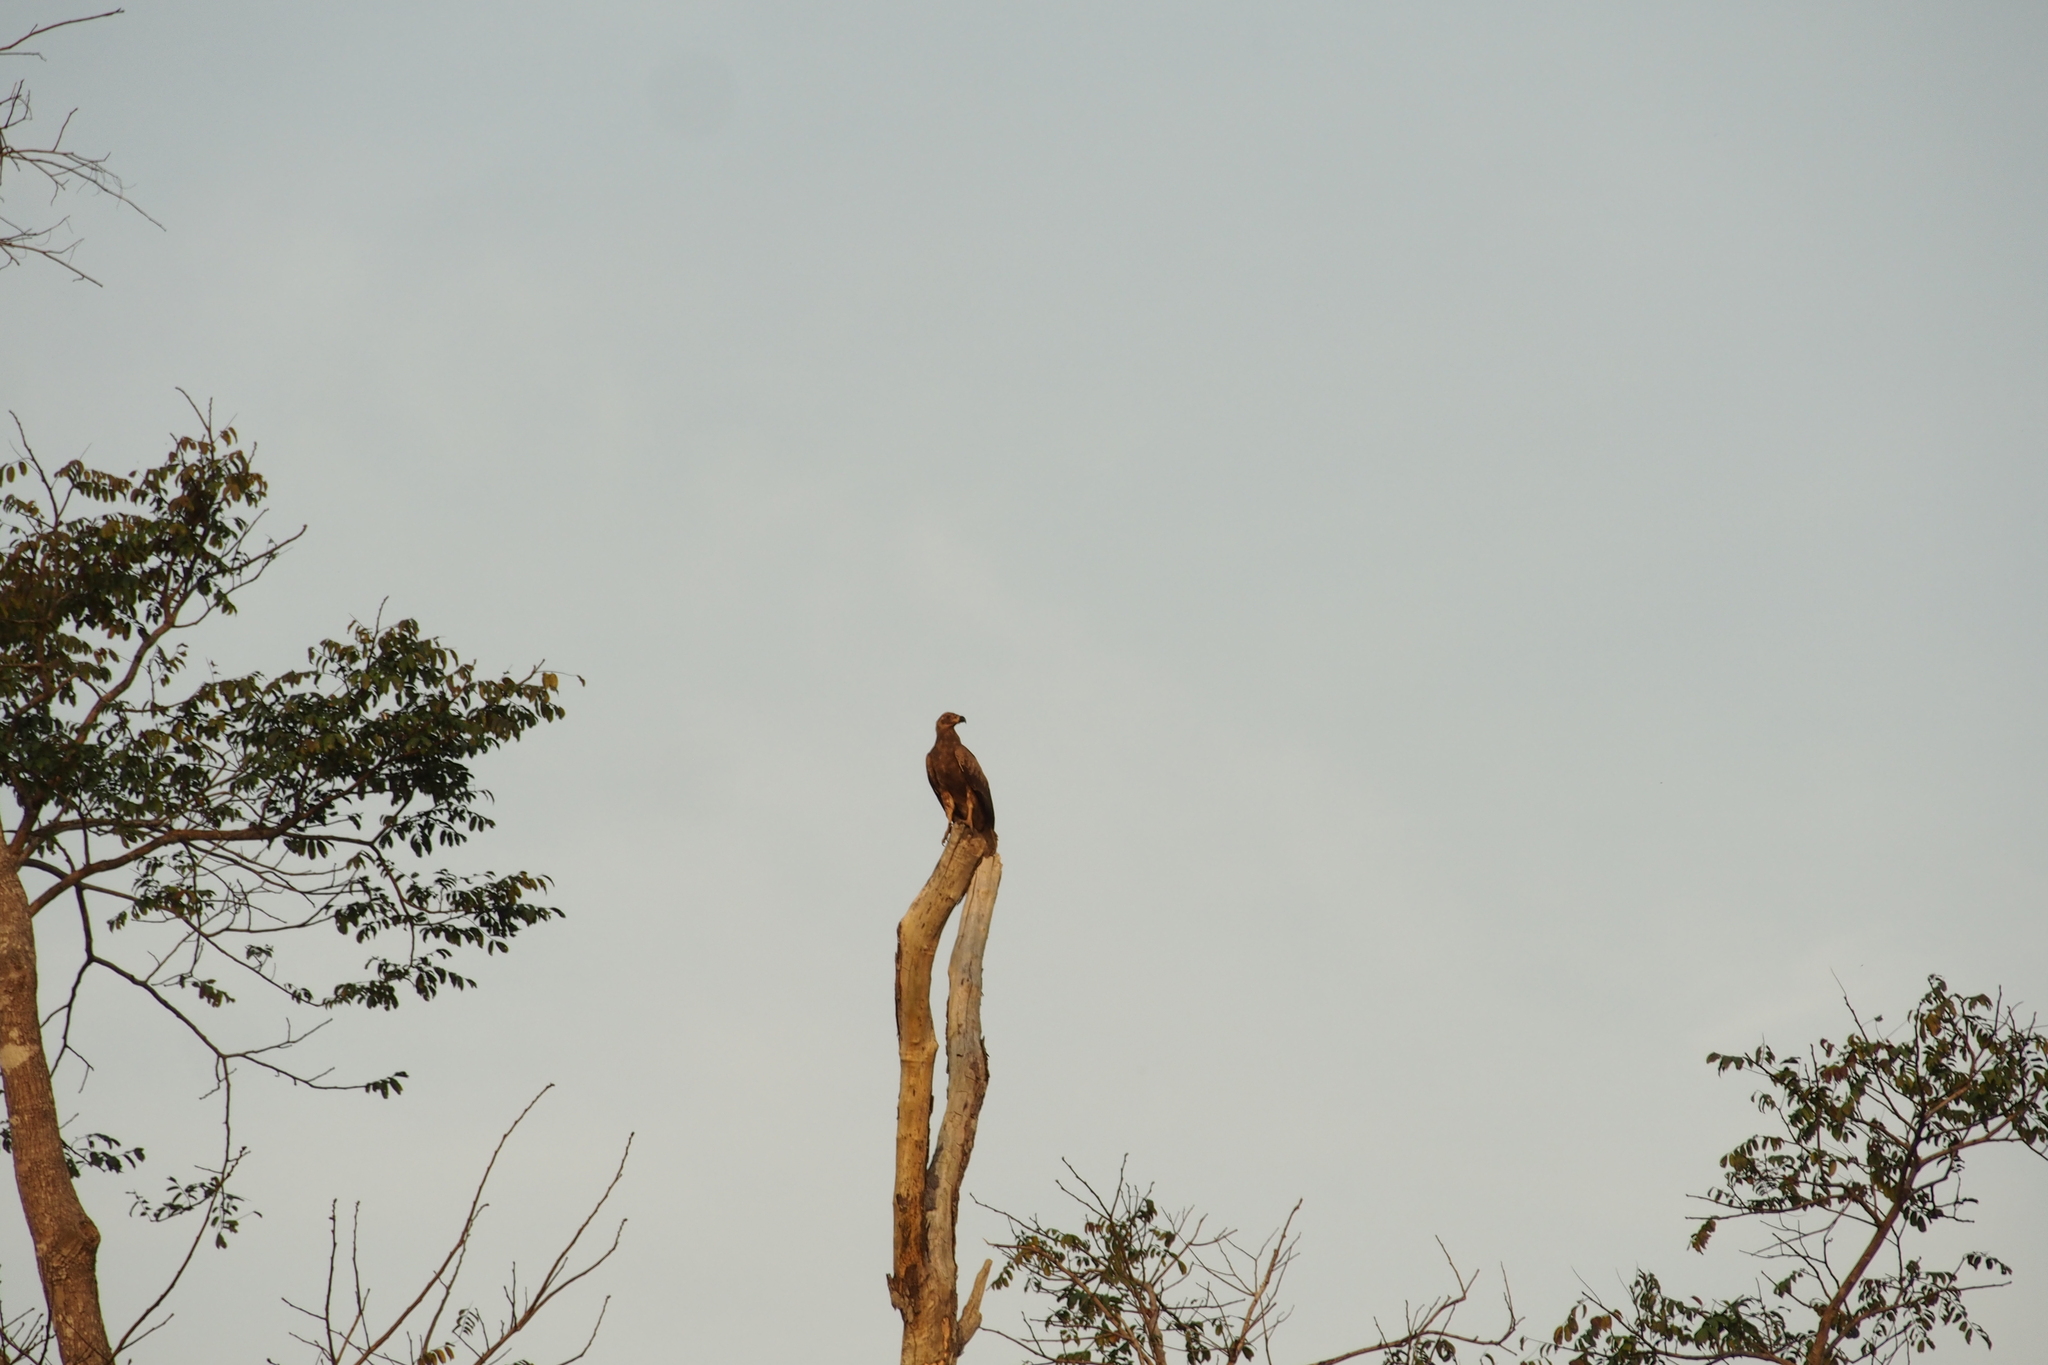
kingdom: Animalia
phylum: Chordata
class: Aves
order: Accipitriformes
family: Accipitridae
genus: Gypohierax
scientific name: Gypohierax angolensis
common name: Palm-nut vulture
